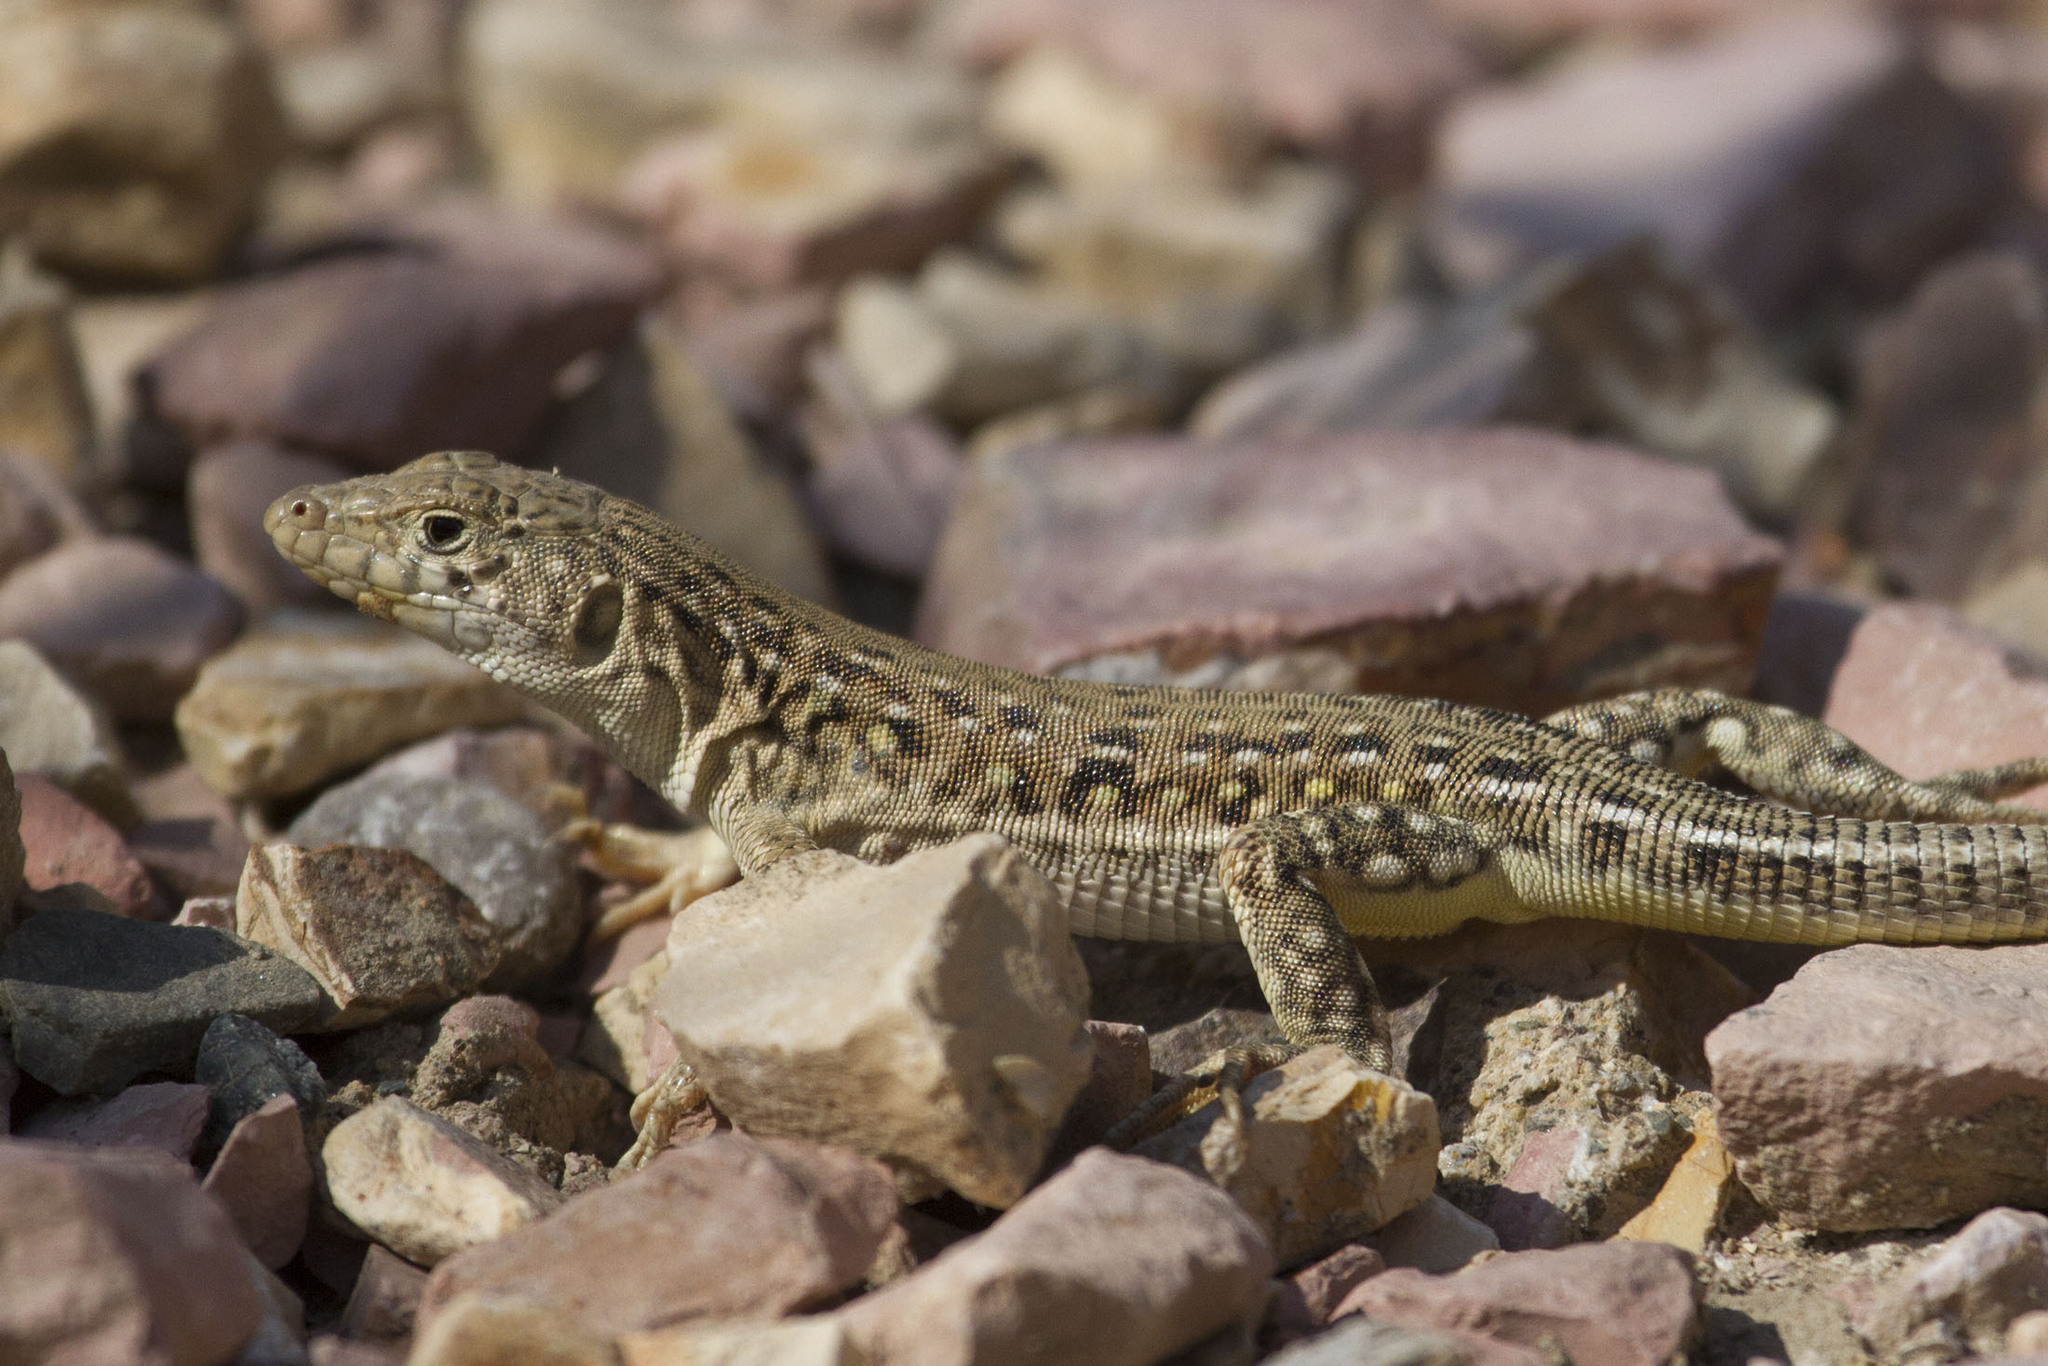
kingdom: Animalia
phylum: Chordata
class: Squamata
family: Lacertidae
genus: Eremias
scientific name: Eremias strauchi
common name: Strauch's racerunner
